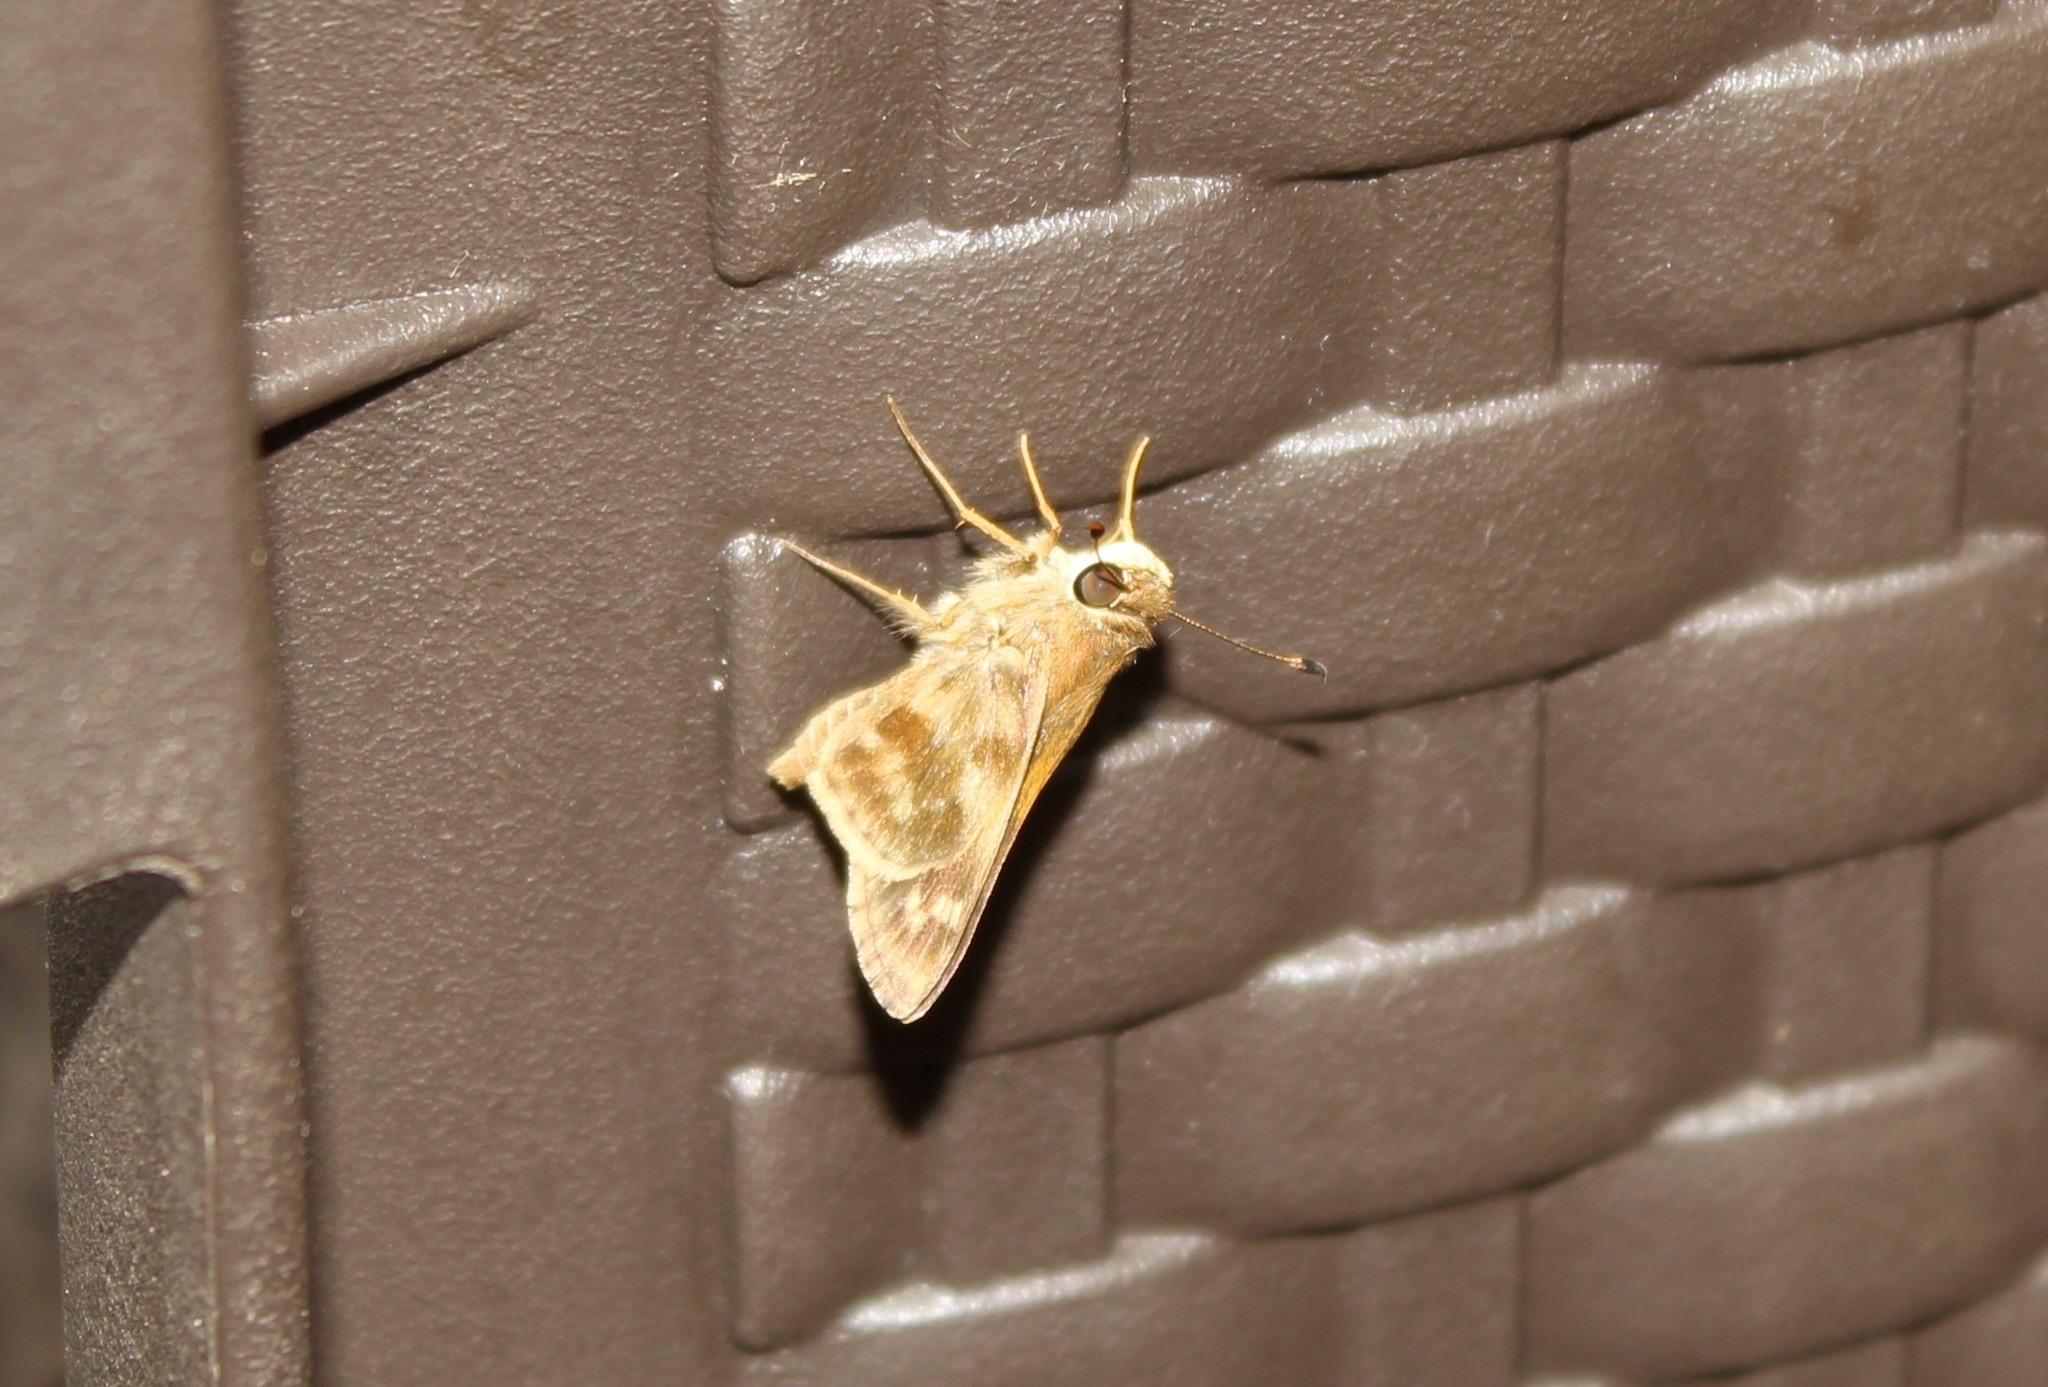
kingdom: Animalia
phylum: Arthropoda
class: Insecta
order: Lepidoptera
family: Hesperiidae
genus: Pompeius
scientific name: Pompeius pompeius
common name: Pompeius skipper
